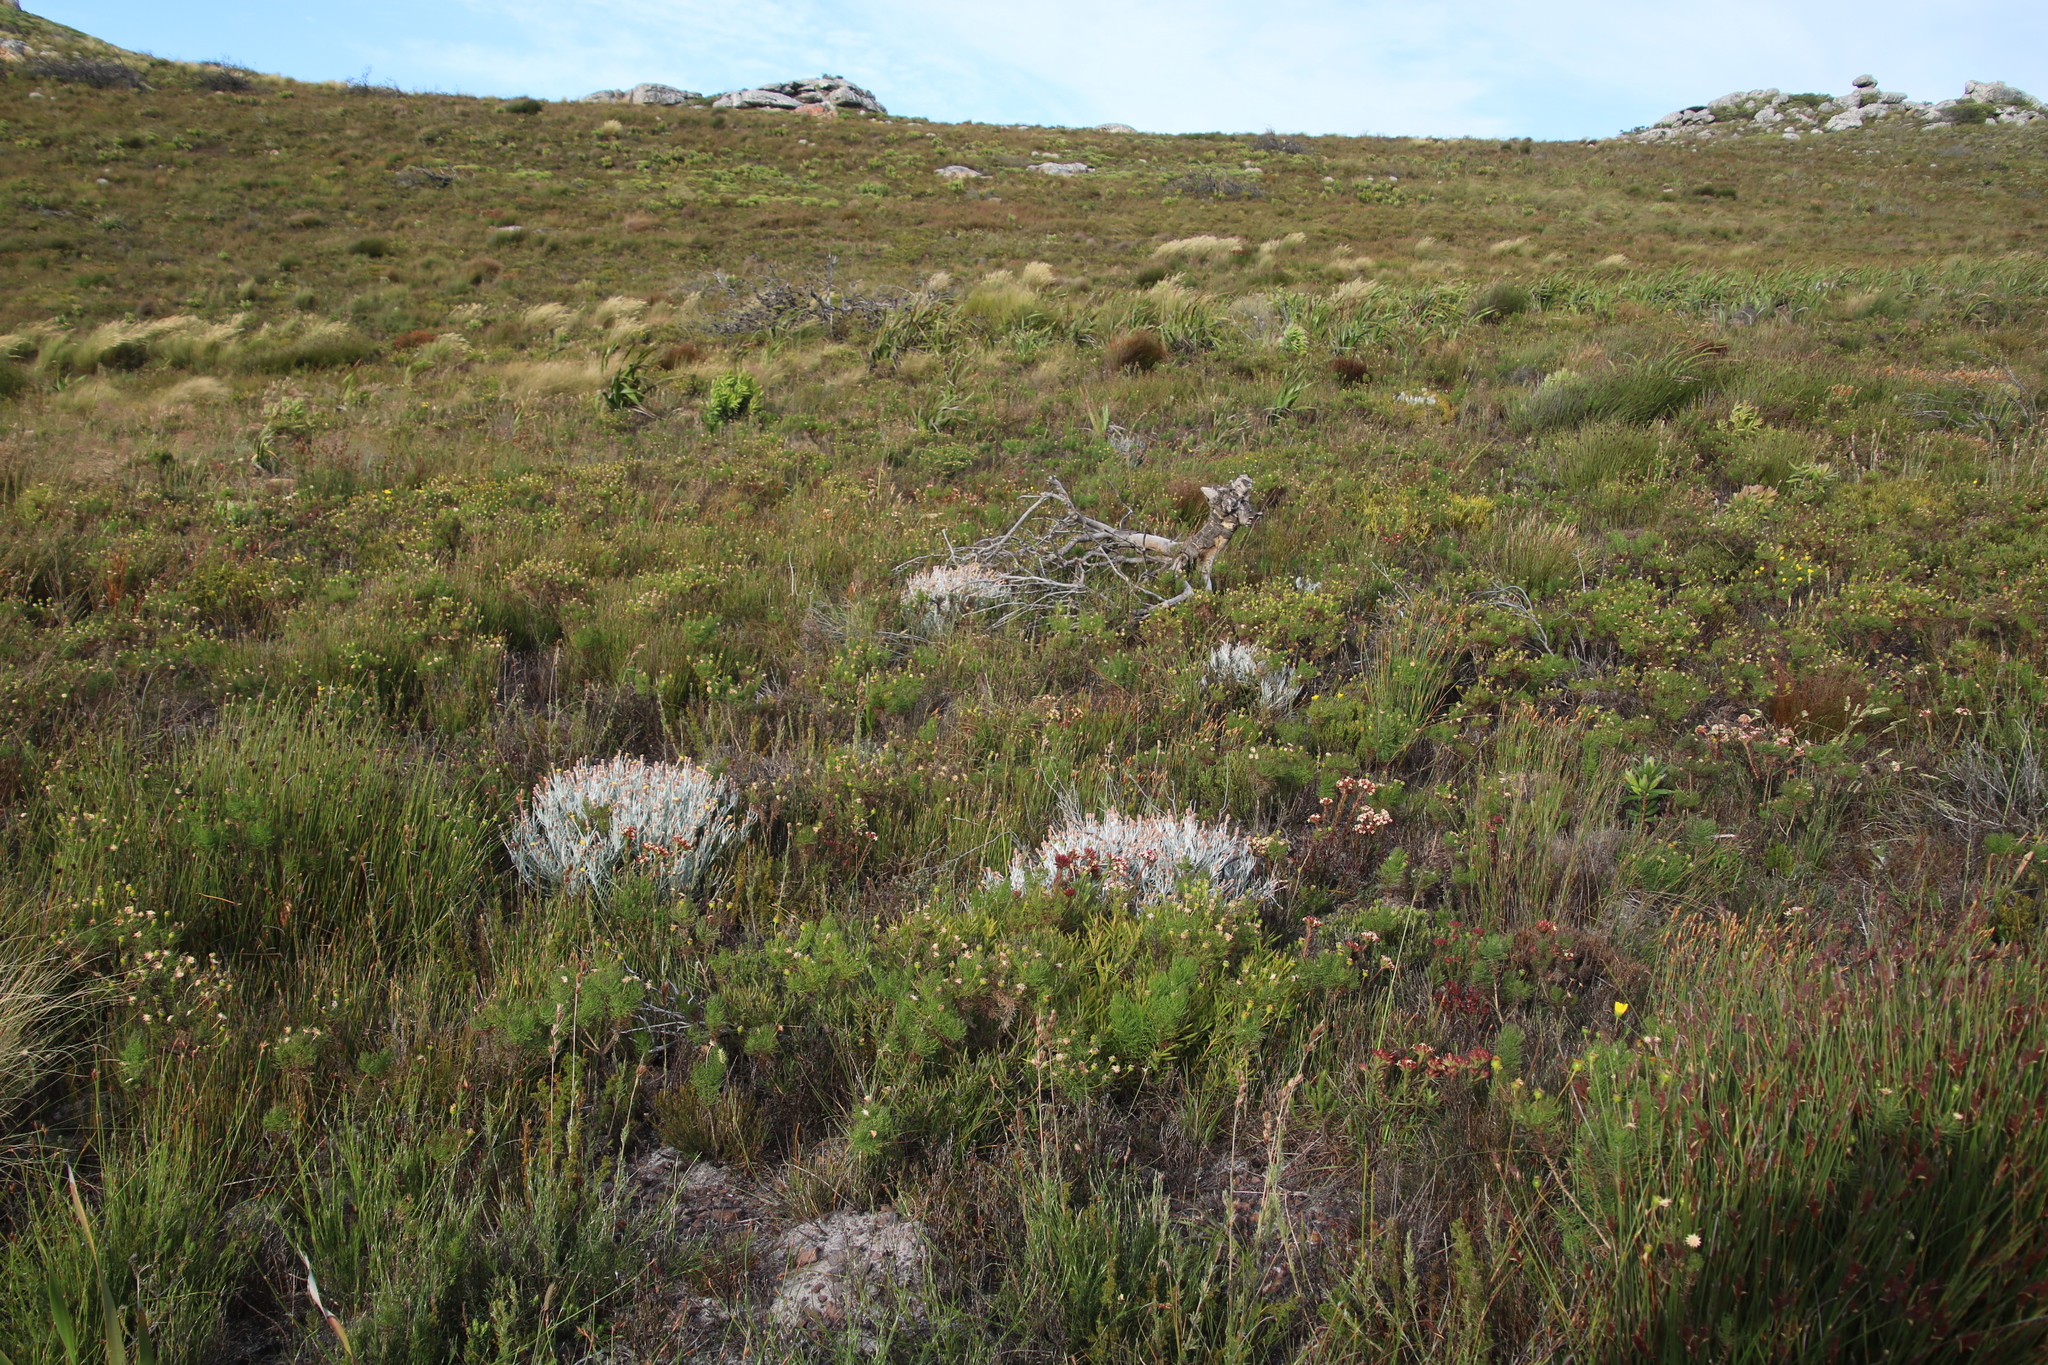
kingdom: Plantae
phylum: Tracheophyta
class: Magnoliopsida
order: Asterales
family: Asteraceae
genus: Syncarpha
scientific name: Syncarpha gnaphaloides
